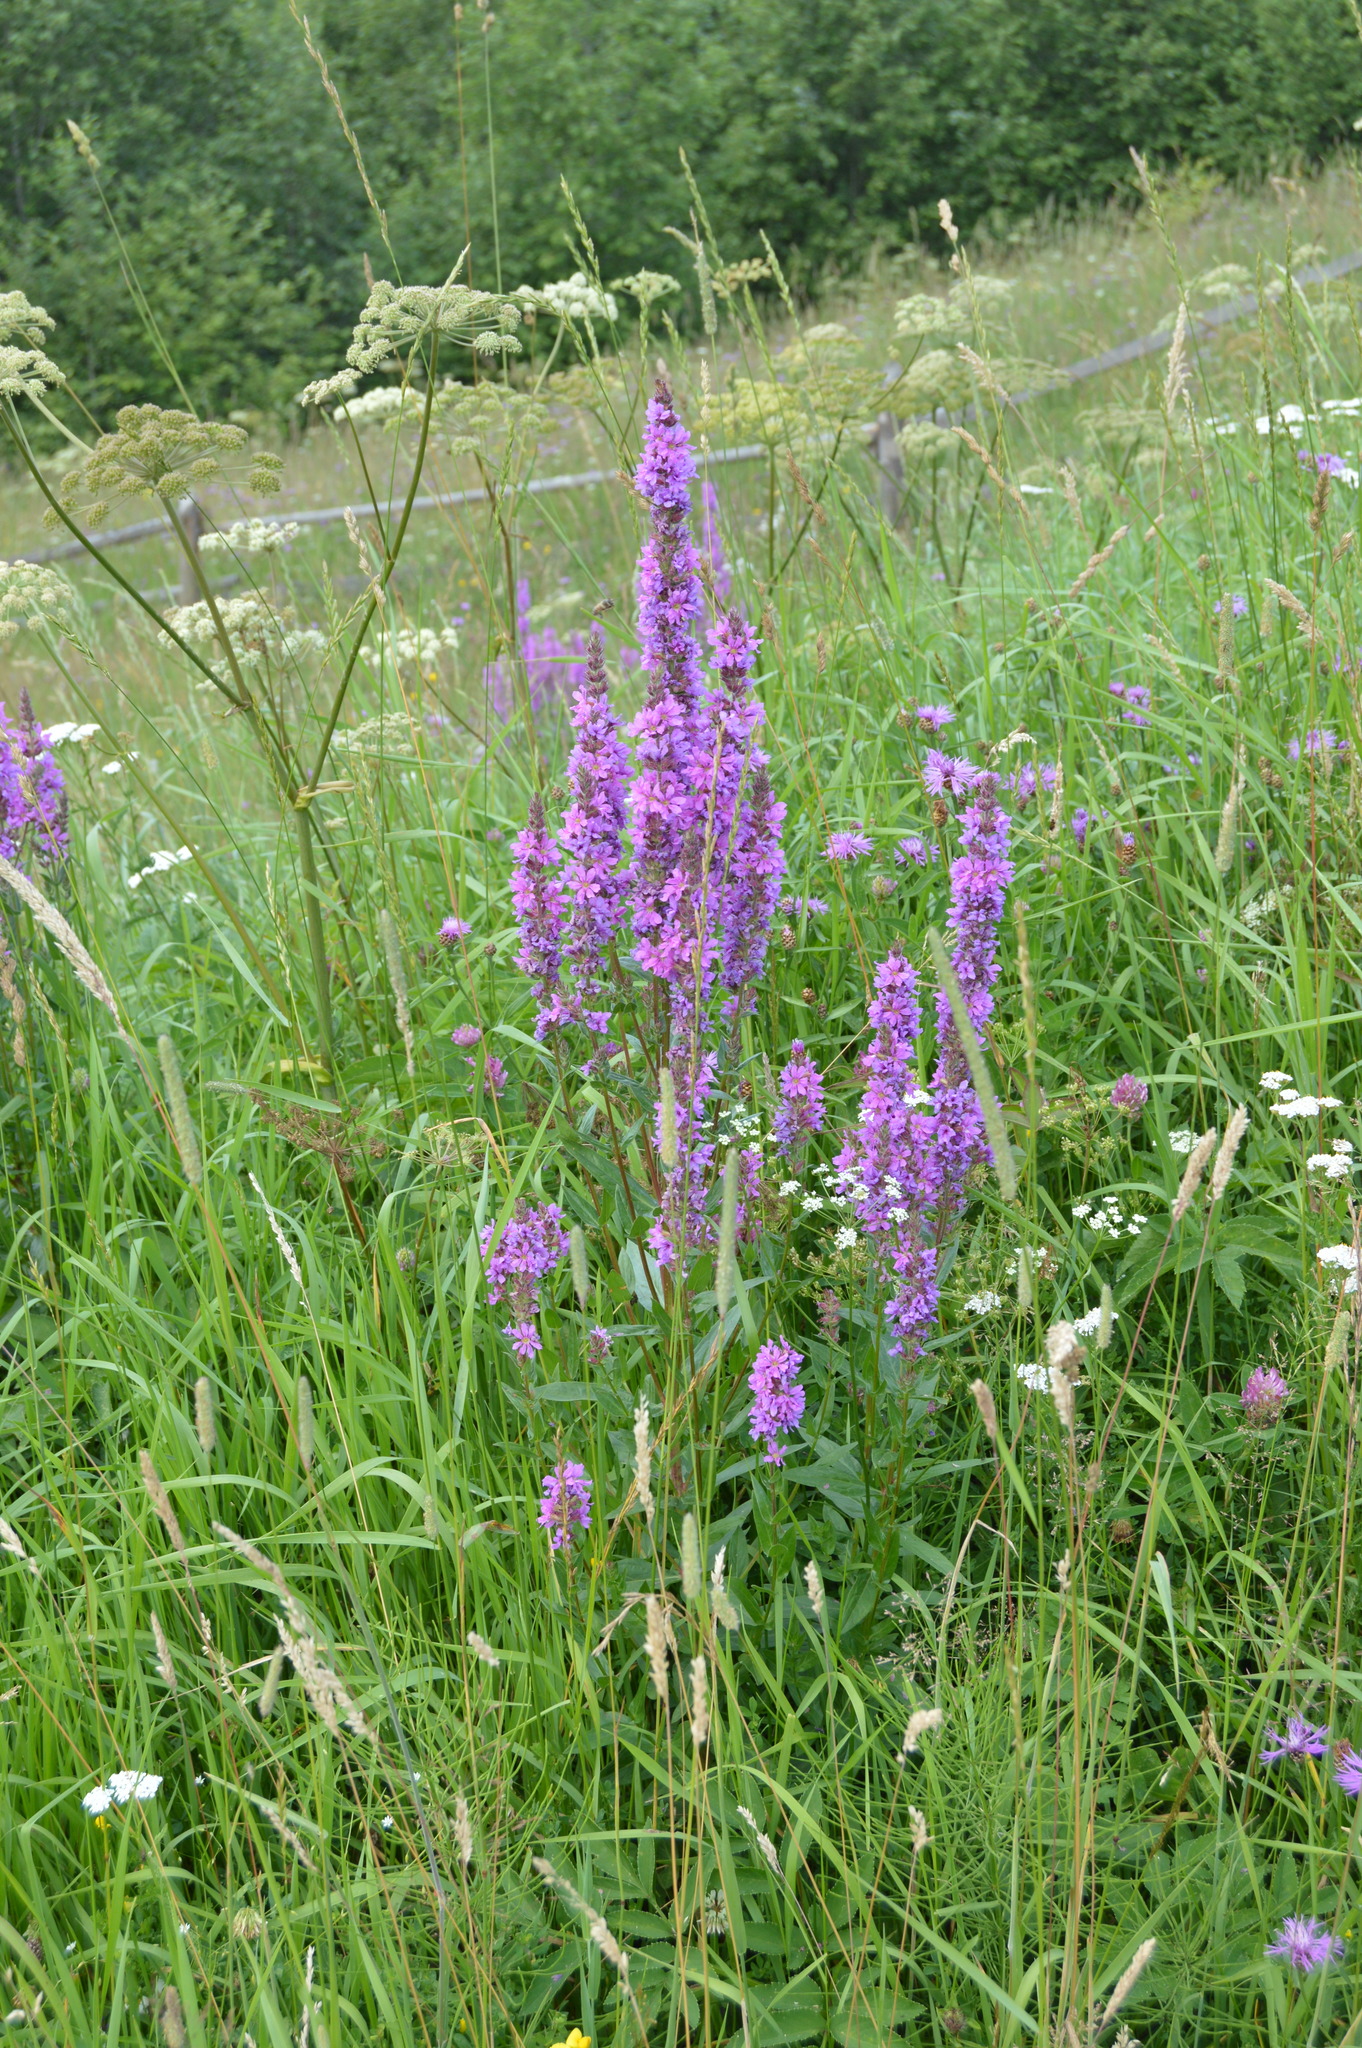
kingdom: Plantae
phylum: Tracheophyta
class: Magnoliopsida
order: Myrtales
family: Lythraceae
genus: Lythrum
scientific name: Lythrum salicaria
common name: Purple loosestrife
